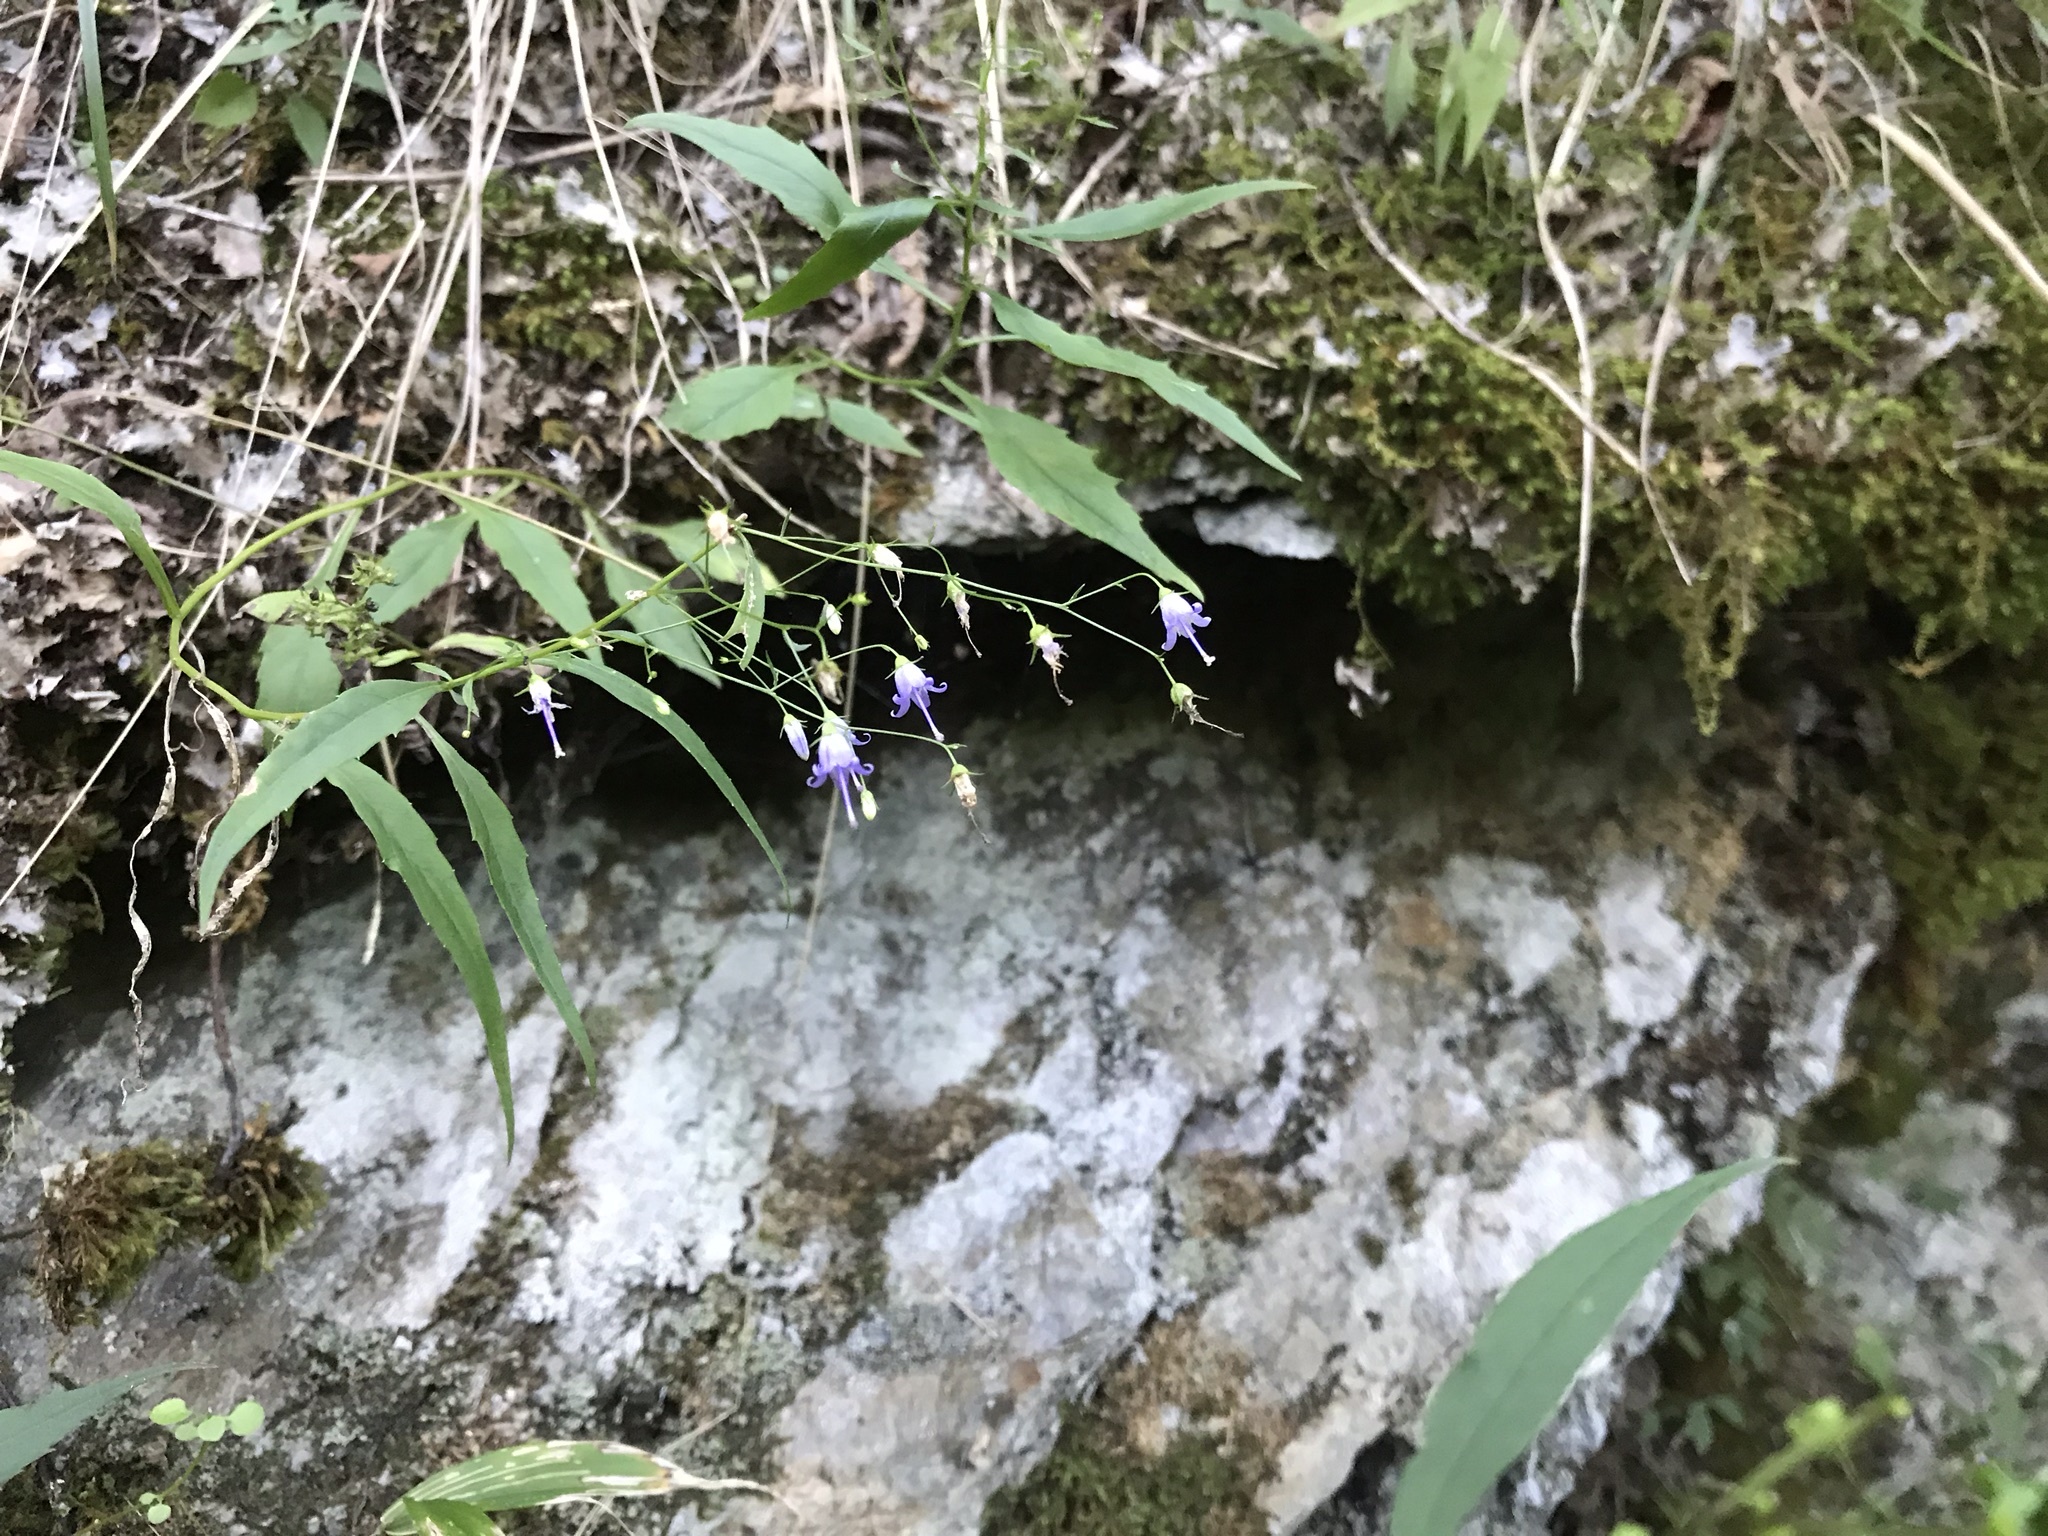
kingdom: Plantae
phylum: Tracheophyta
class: Magnoliopsida
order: Asterales
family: Campanulaceae
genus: Campanula
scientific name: Campanula divaricata
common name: Appalachian bellflower
